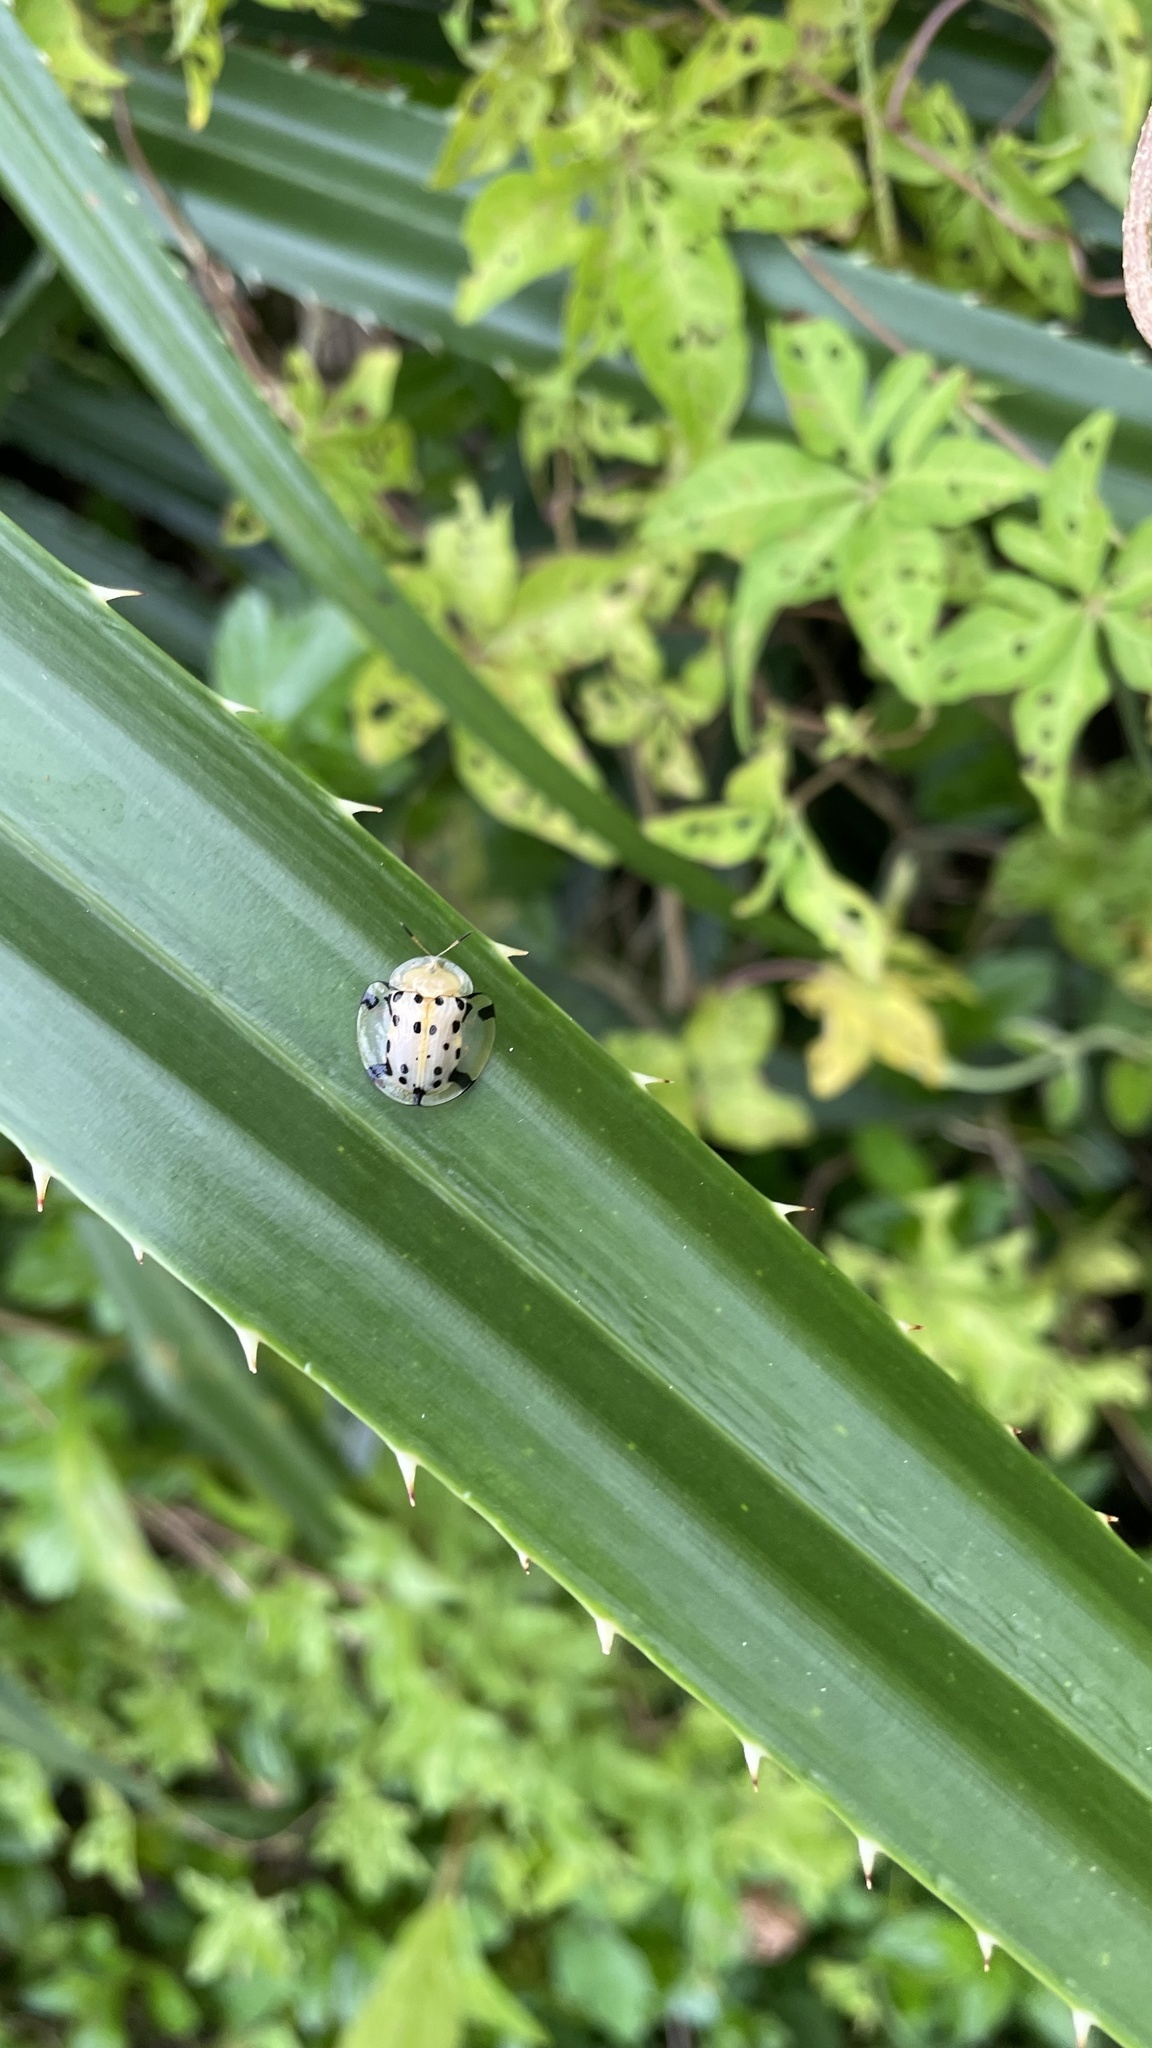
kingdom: Animalia
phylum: Arthropoda
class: Insecta
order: Coleoptera
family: Chrysomelidae
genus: Aspidimorpha
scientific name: Aspidimorpha miliaris
